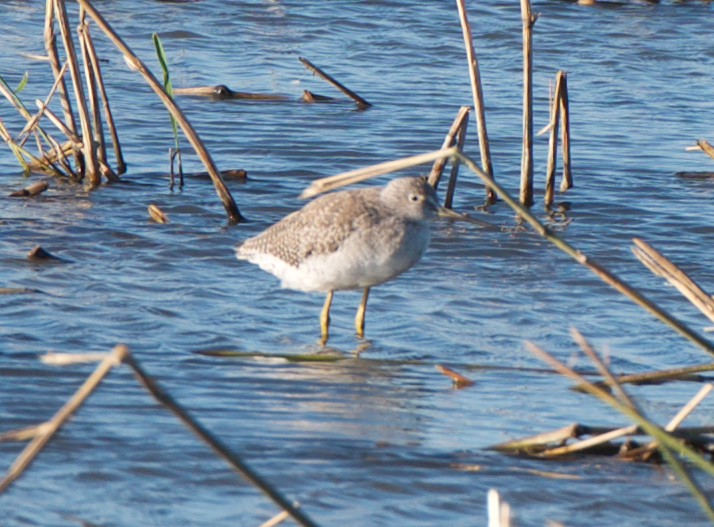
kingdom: Animalia
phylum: Chordata
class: Aves
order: Charadriiformes
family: Scolopacidae
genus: Tringa
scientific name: Tringa melanoleuca
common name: Greater yellowlegs
